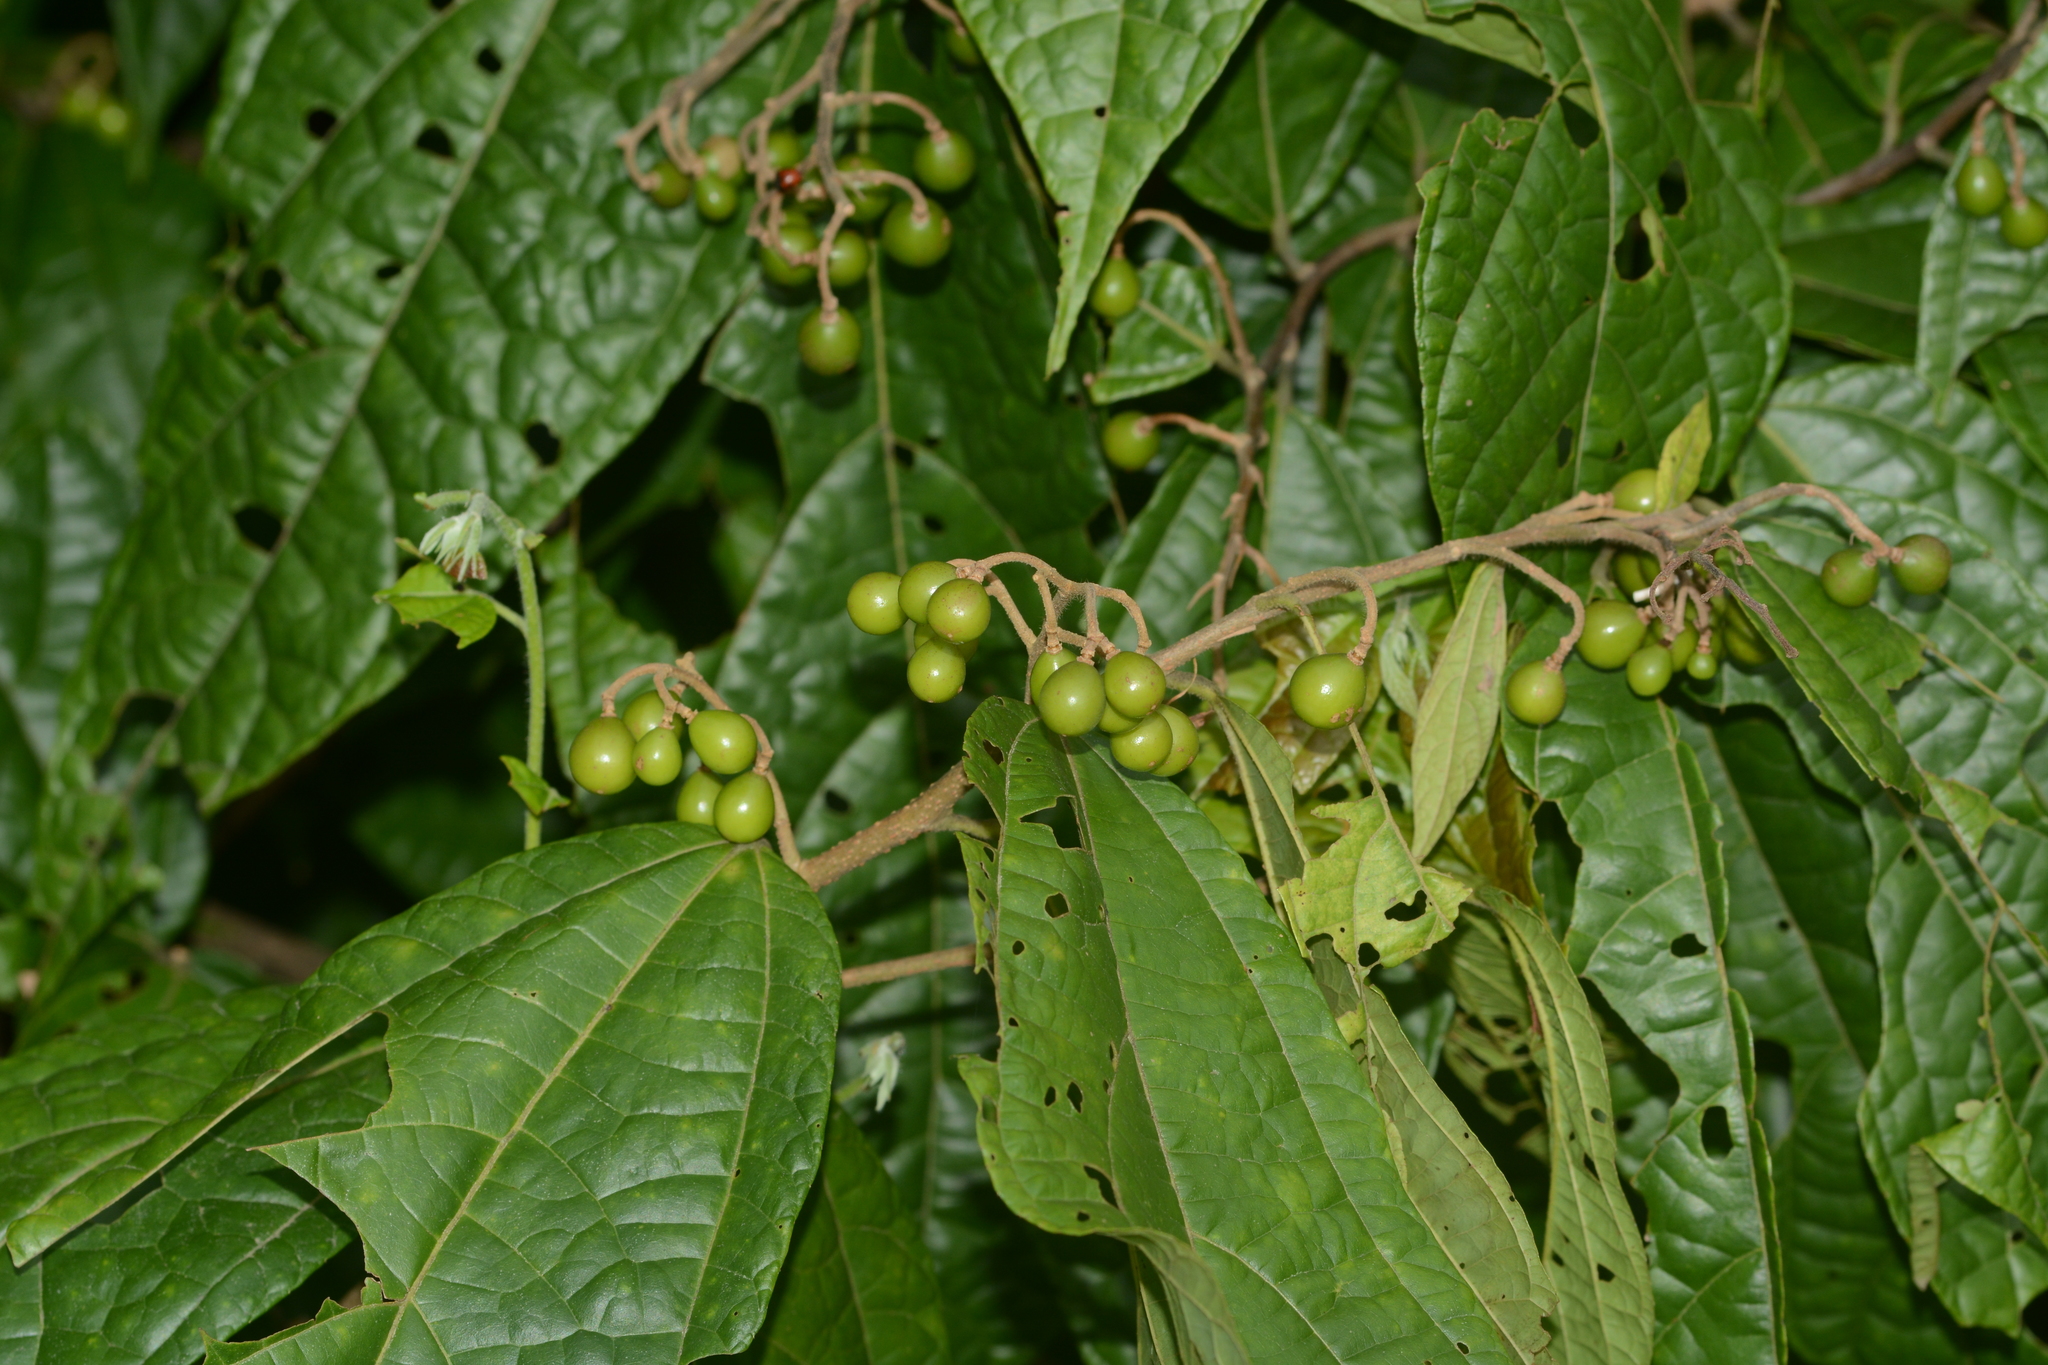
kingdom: Plantae
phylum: Tracheophyta
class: Magnoliopsida
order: Malvales
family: Malvaceae
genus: Microcos
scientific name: Microcos paniculata
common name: Microcos
